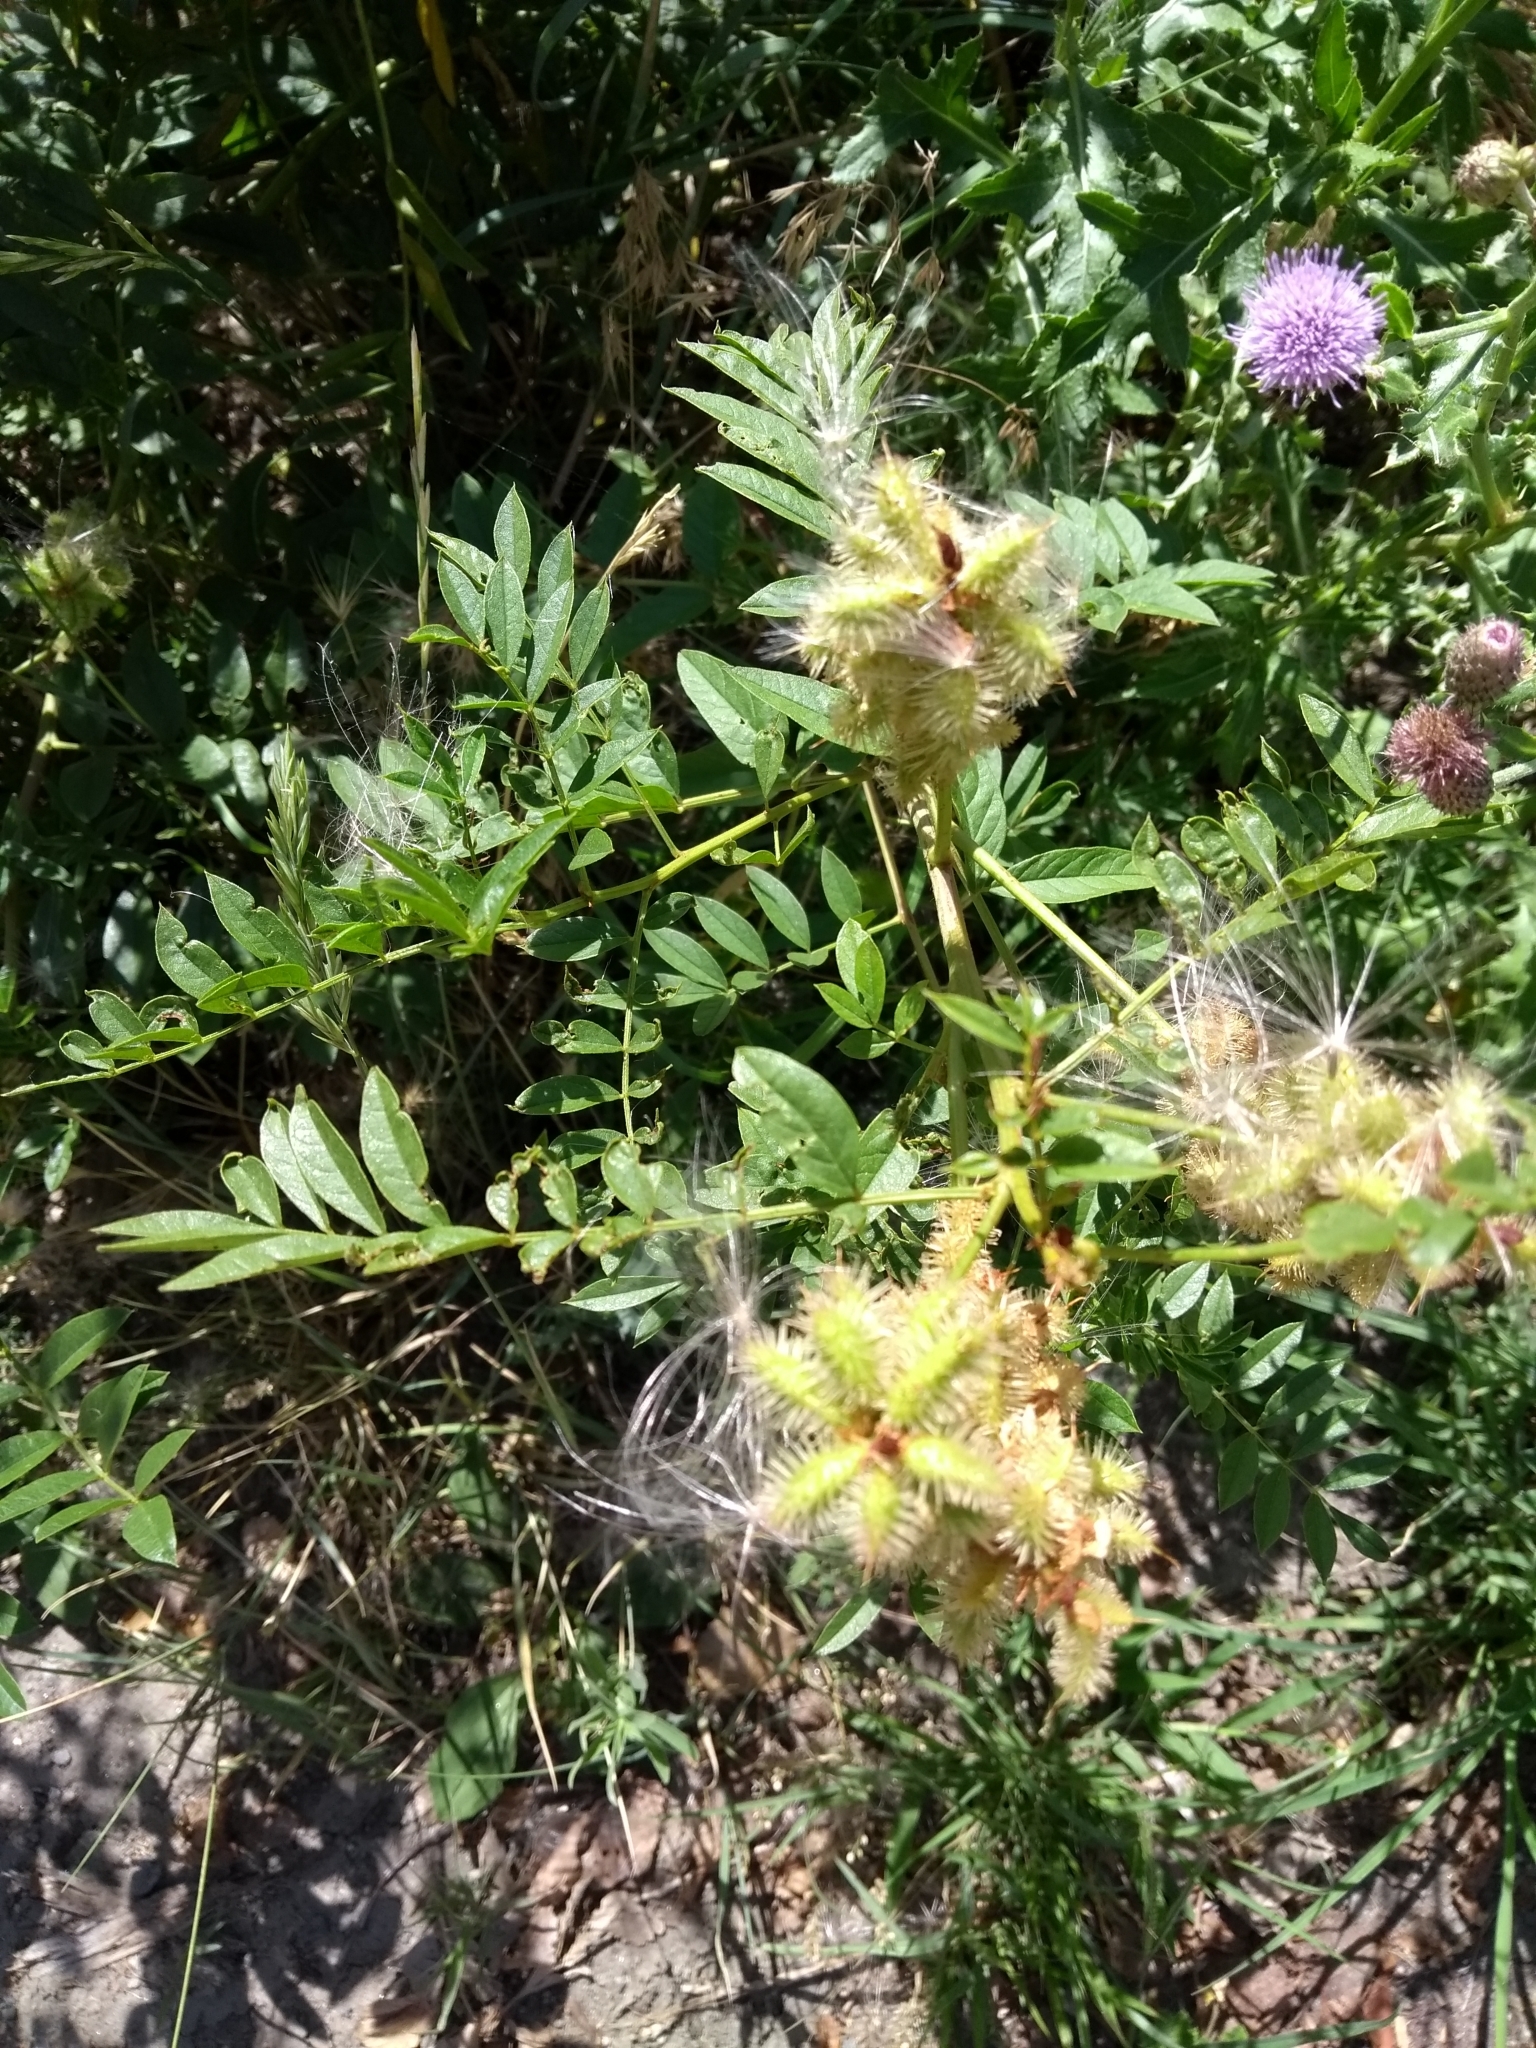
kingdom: Plantae
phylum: Tracheophyta
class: Magnoliopsida
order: Fabales
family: Fabaceae
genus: Glycyrrhiza
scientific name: Glycyrrhiza lepidota
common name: American liquorice
